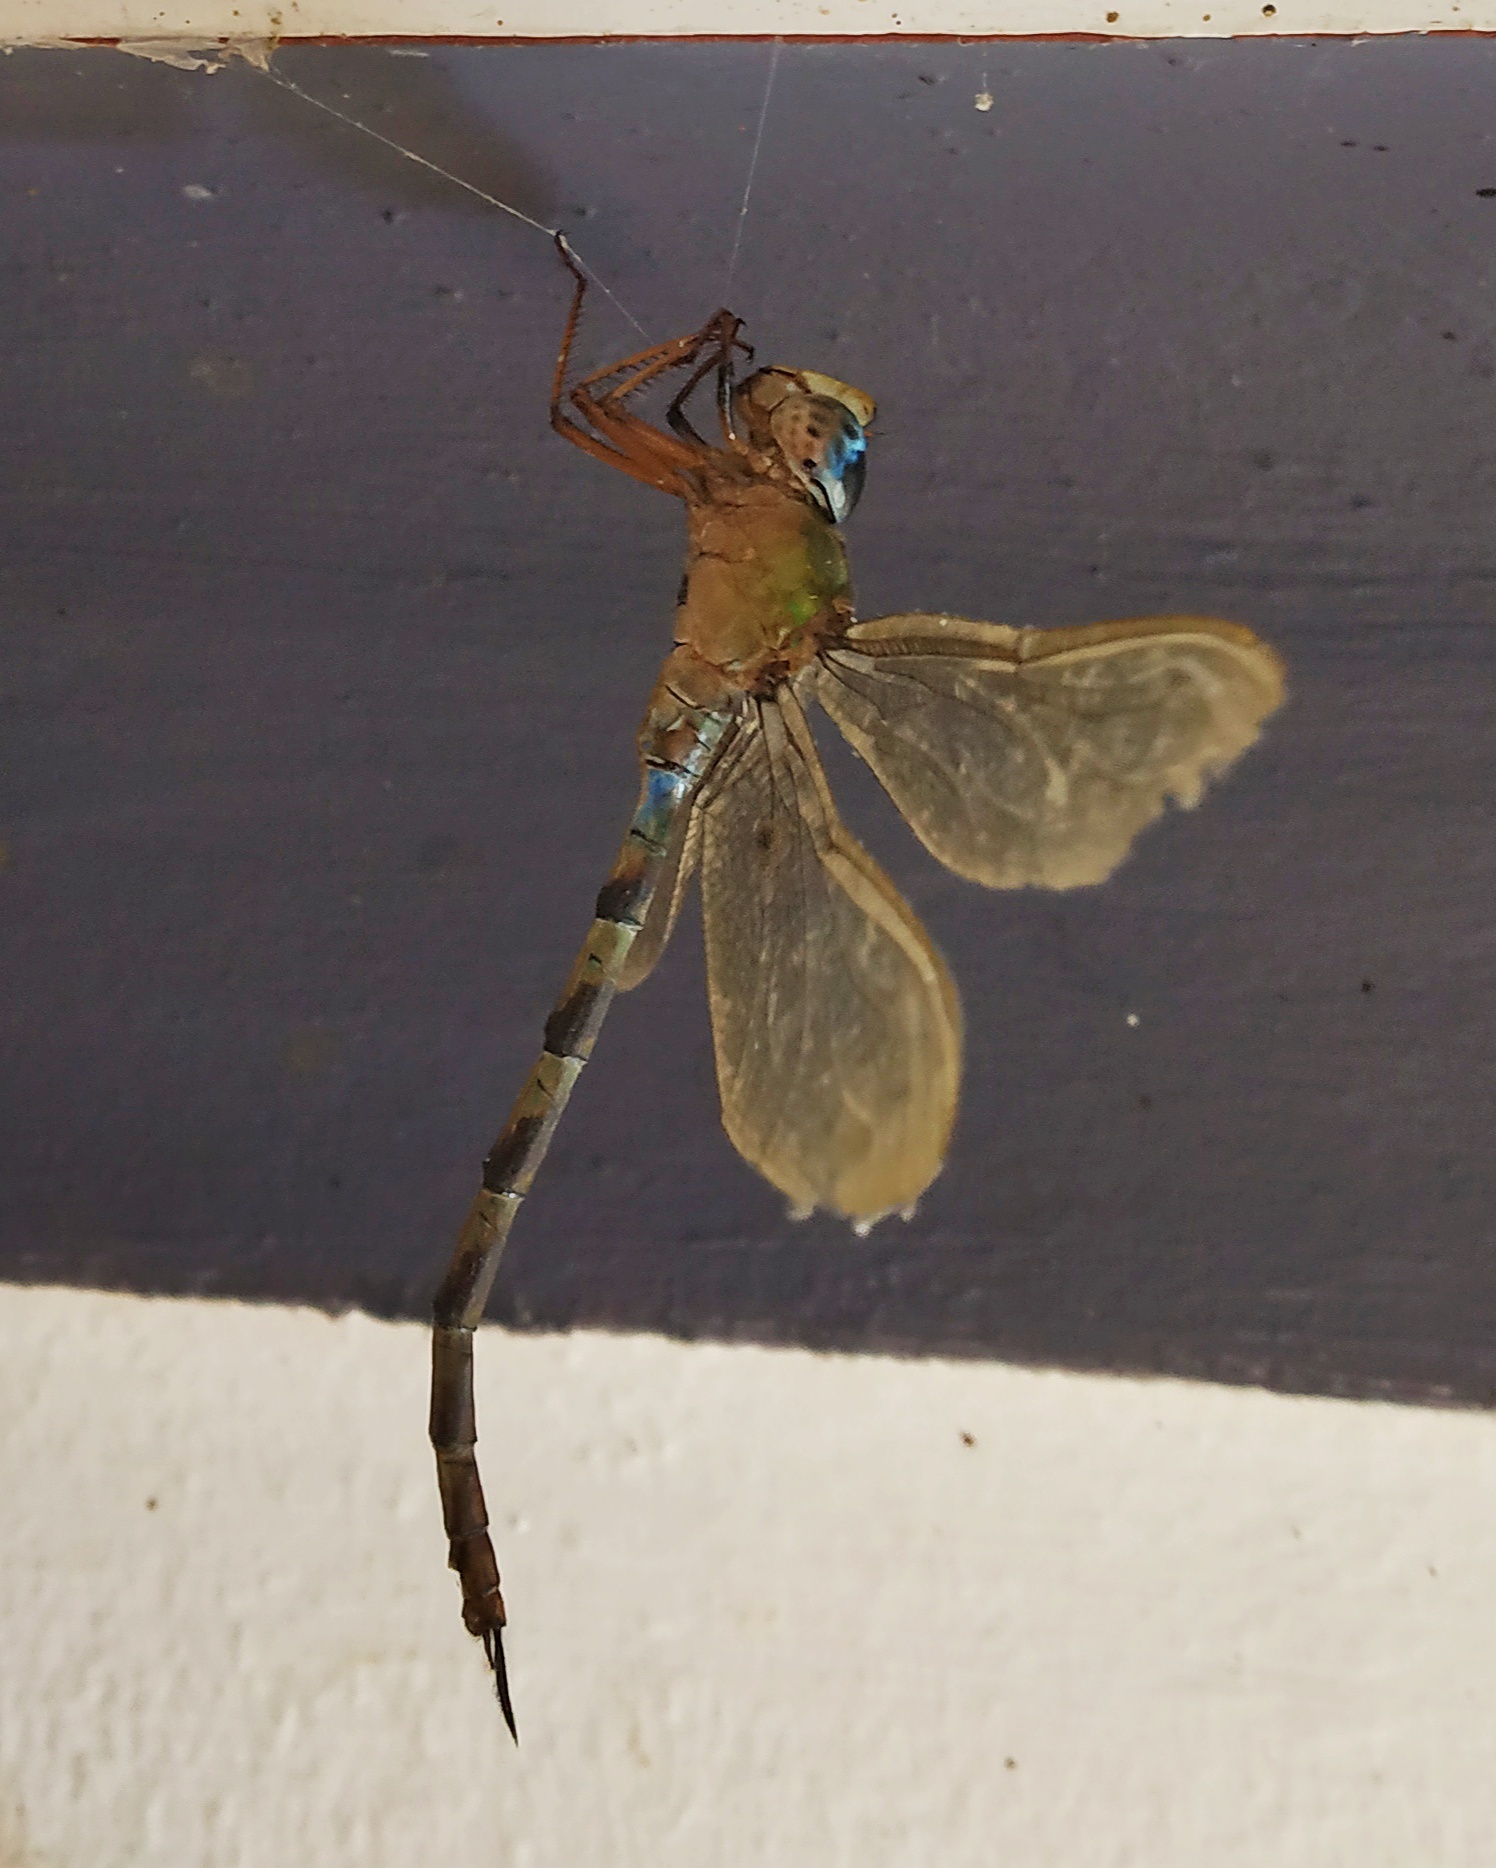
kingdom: Animalia
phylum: Arthropoda
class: Insecta
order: Odonata
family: Aeshnidae
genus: Gynacantha
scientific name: Gynacantha dravida
